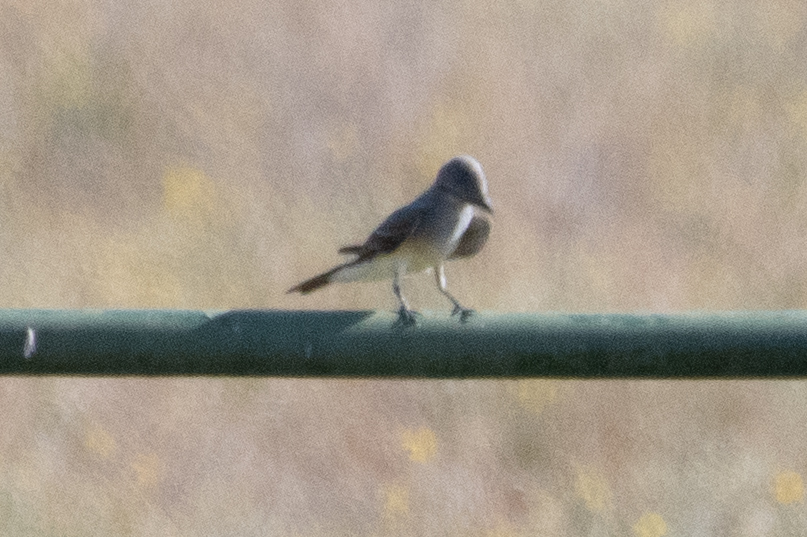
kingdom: Animalia
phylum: Chordata
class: Aves
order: Passeriformes
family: Tyrannidae
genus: Tyrannus
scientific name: Tyrannus verticalis
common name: Western kingbird
